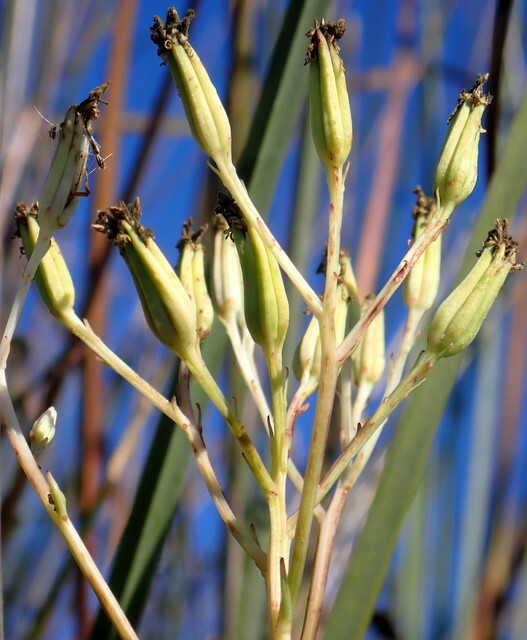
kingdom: Plantae
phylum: Tracheophyta
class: Magnoliopsida
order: Asterales
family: Asteraceae
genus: Arnoglossum
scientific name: Arnoglossum ovatum
